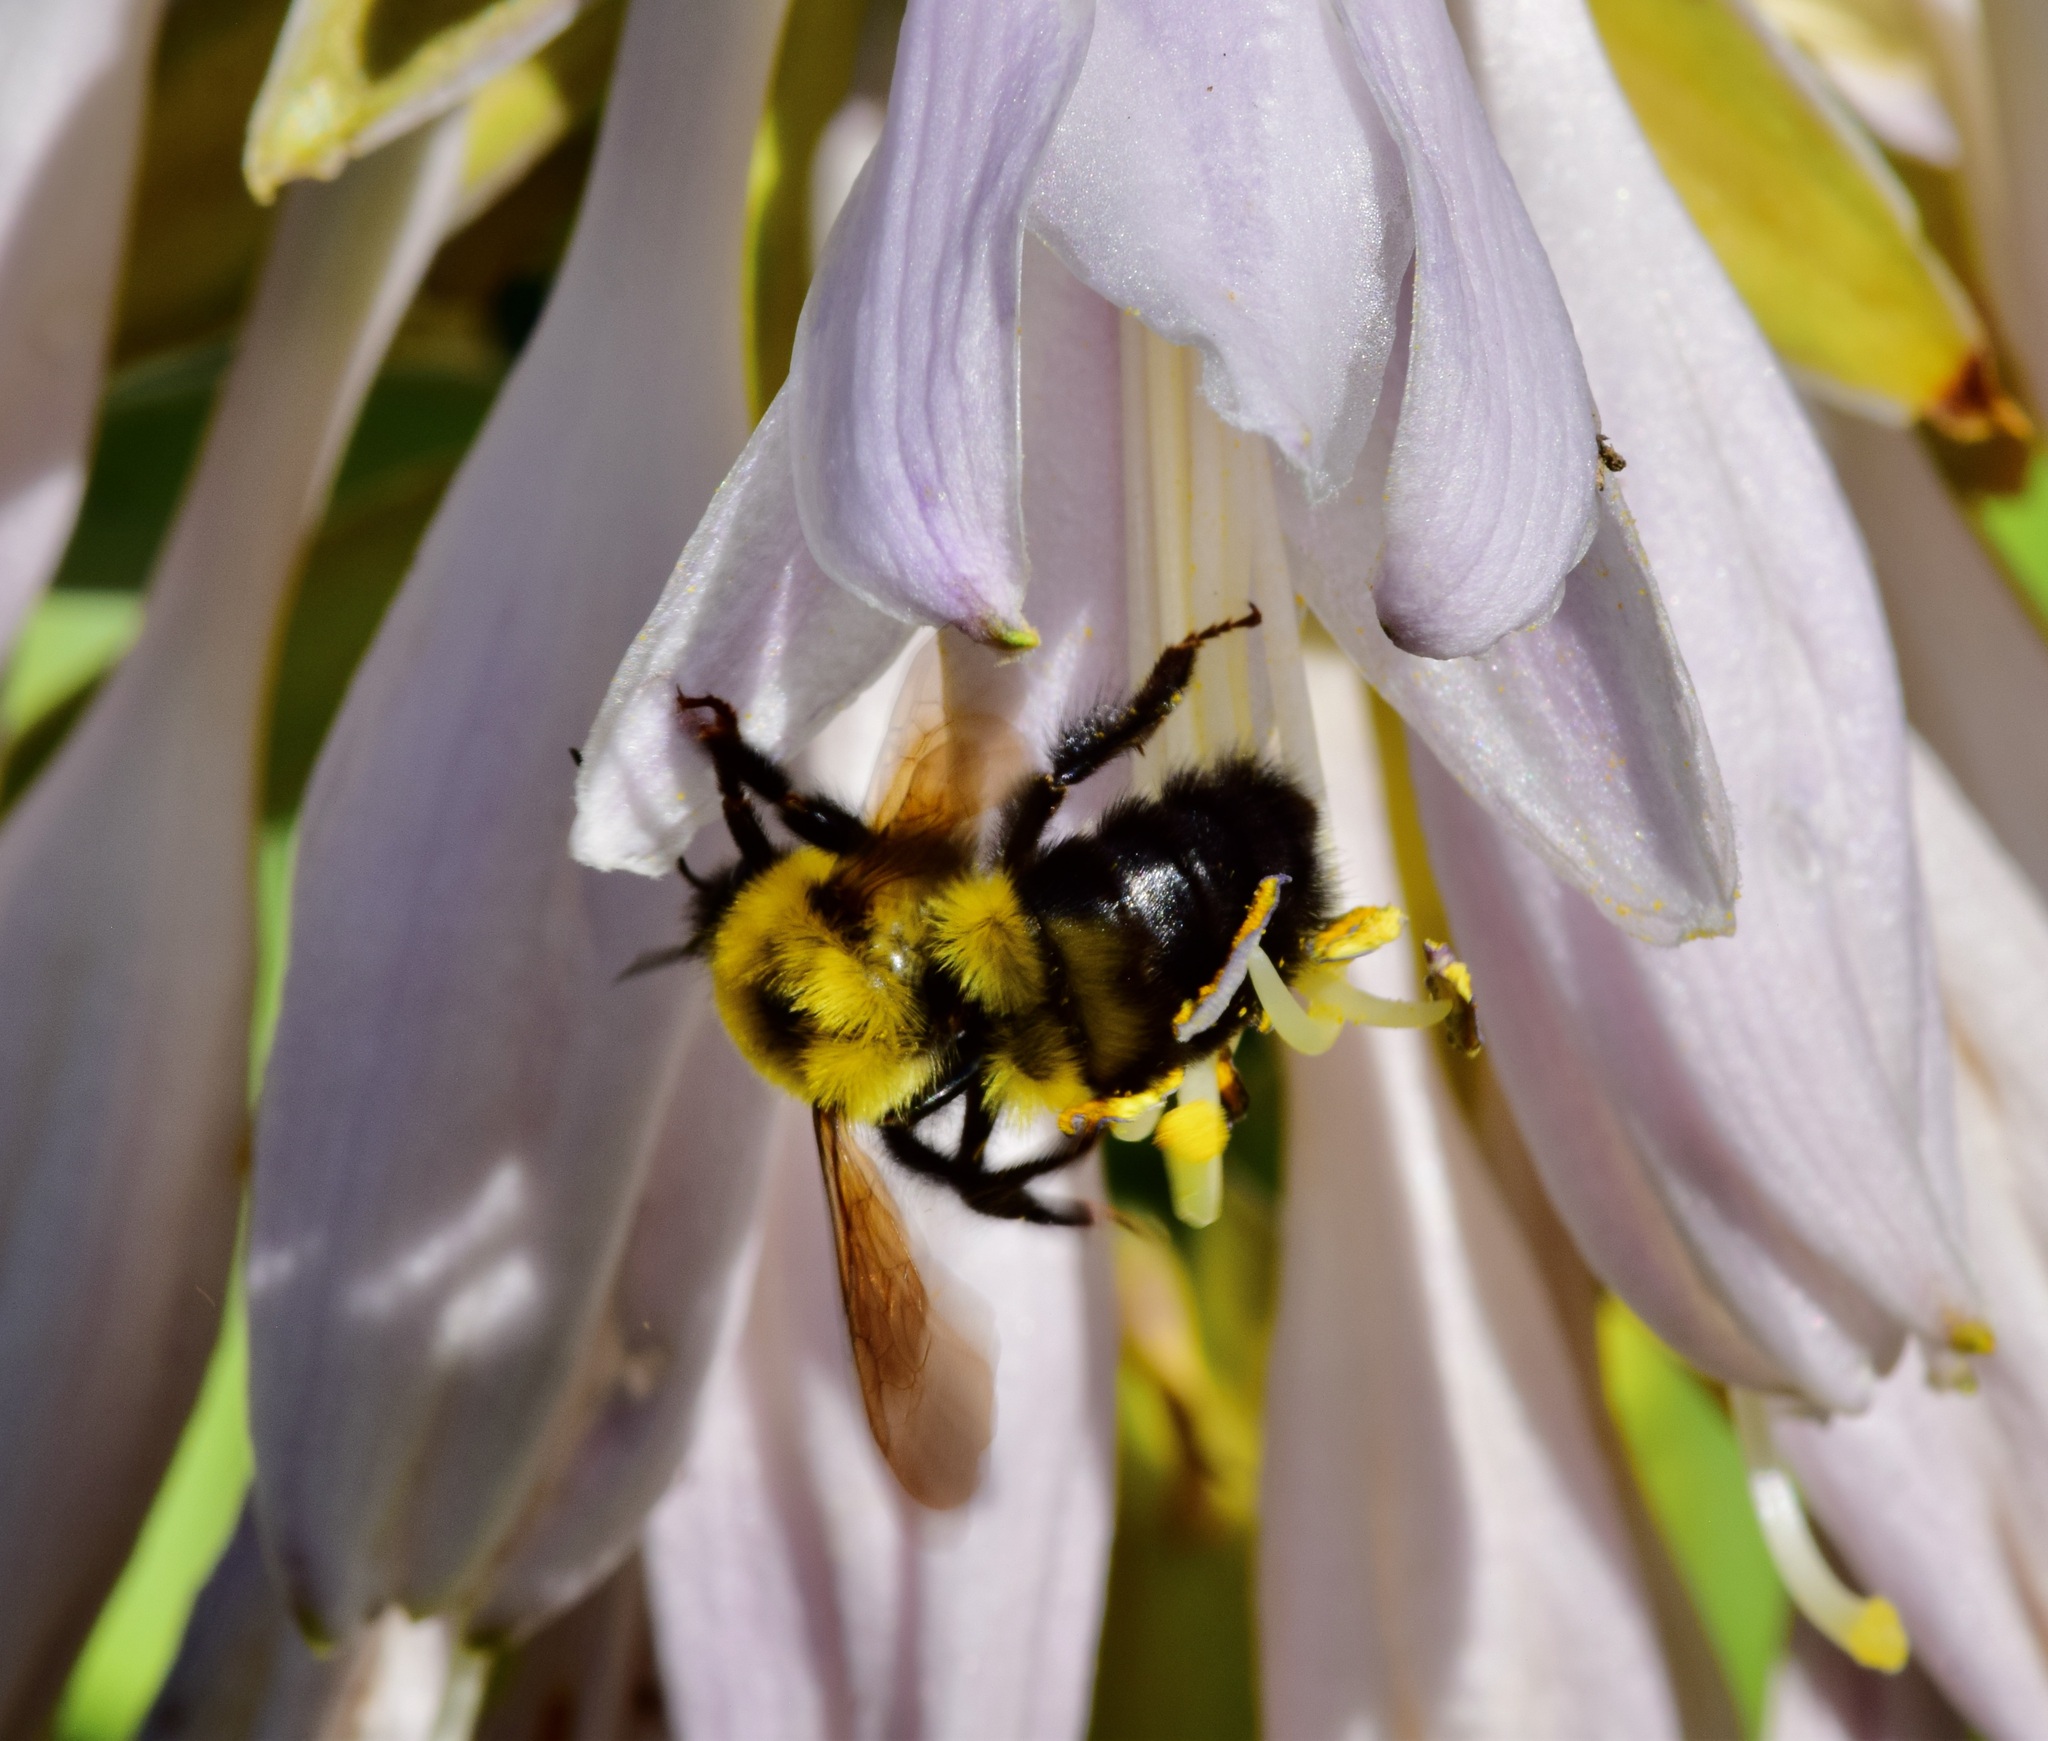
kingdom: Animalia
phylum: Arthropoda
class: Insecta
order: Hymenoptera
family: Apidae
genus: Bombus
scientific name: Bombus bimaculatus
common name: Two-spotted bumble bee
